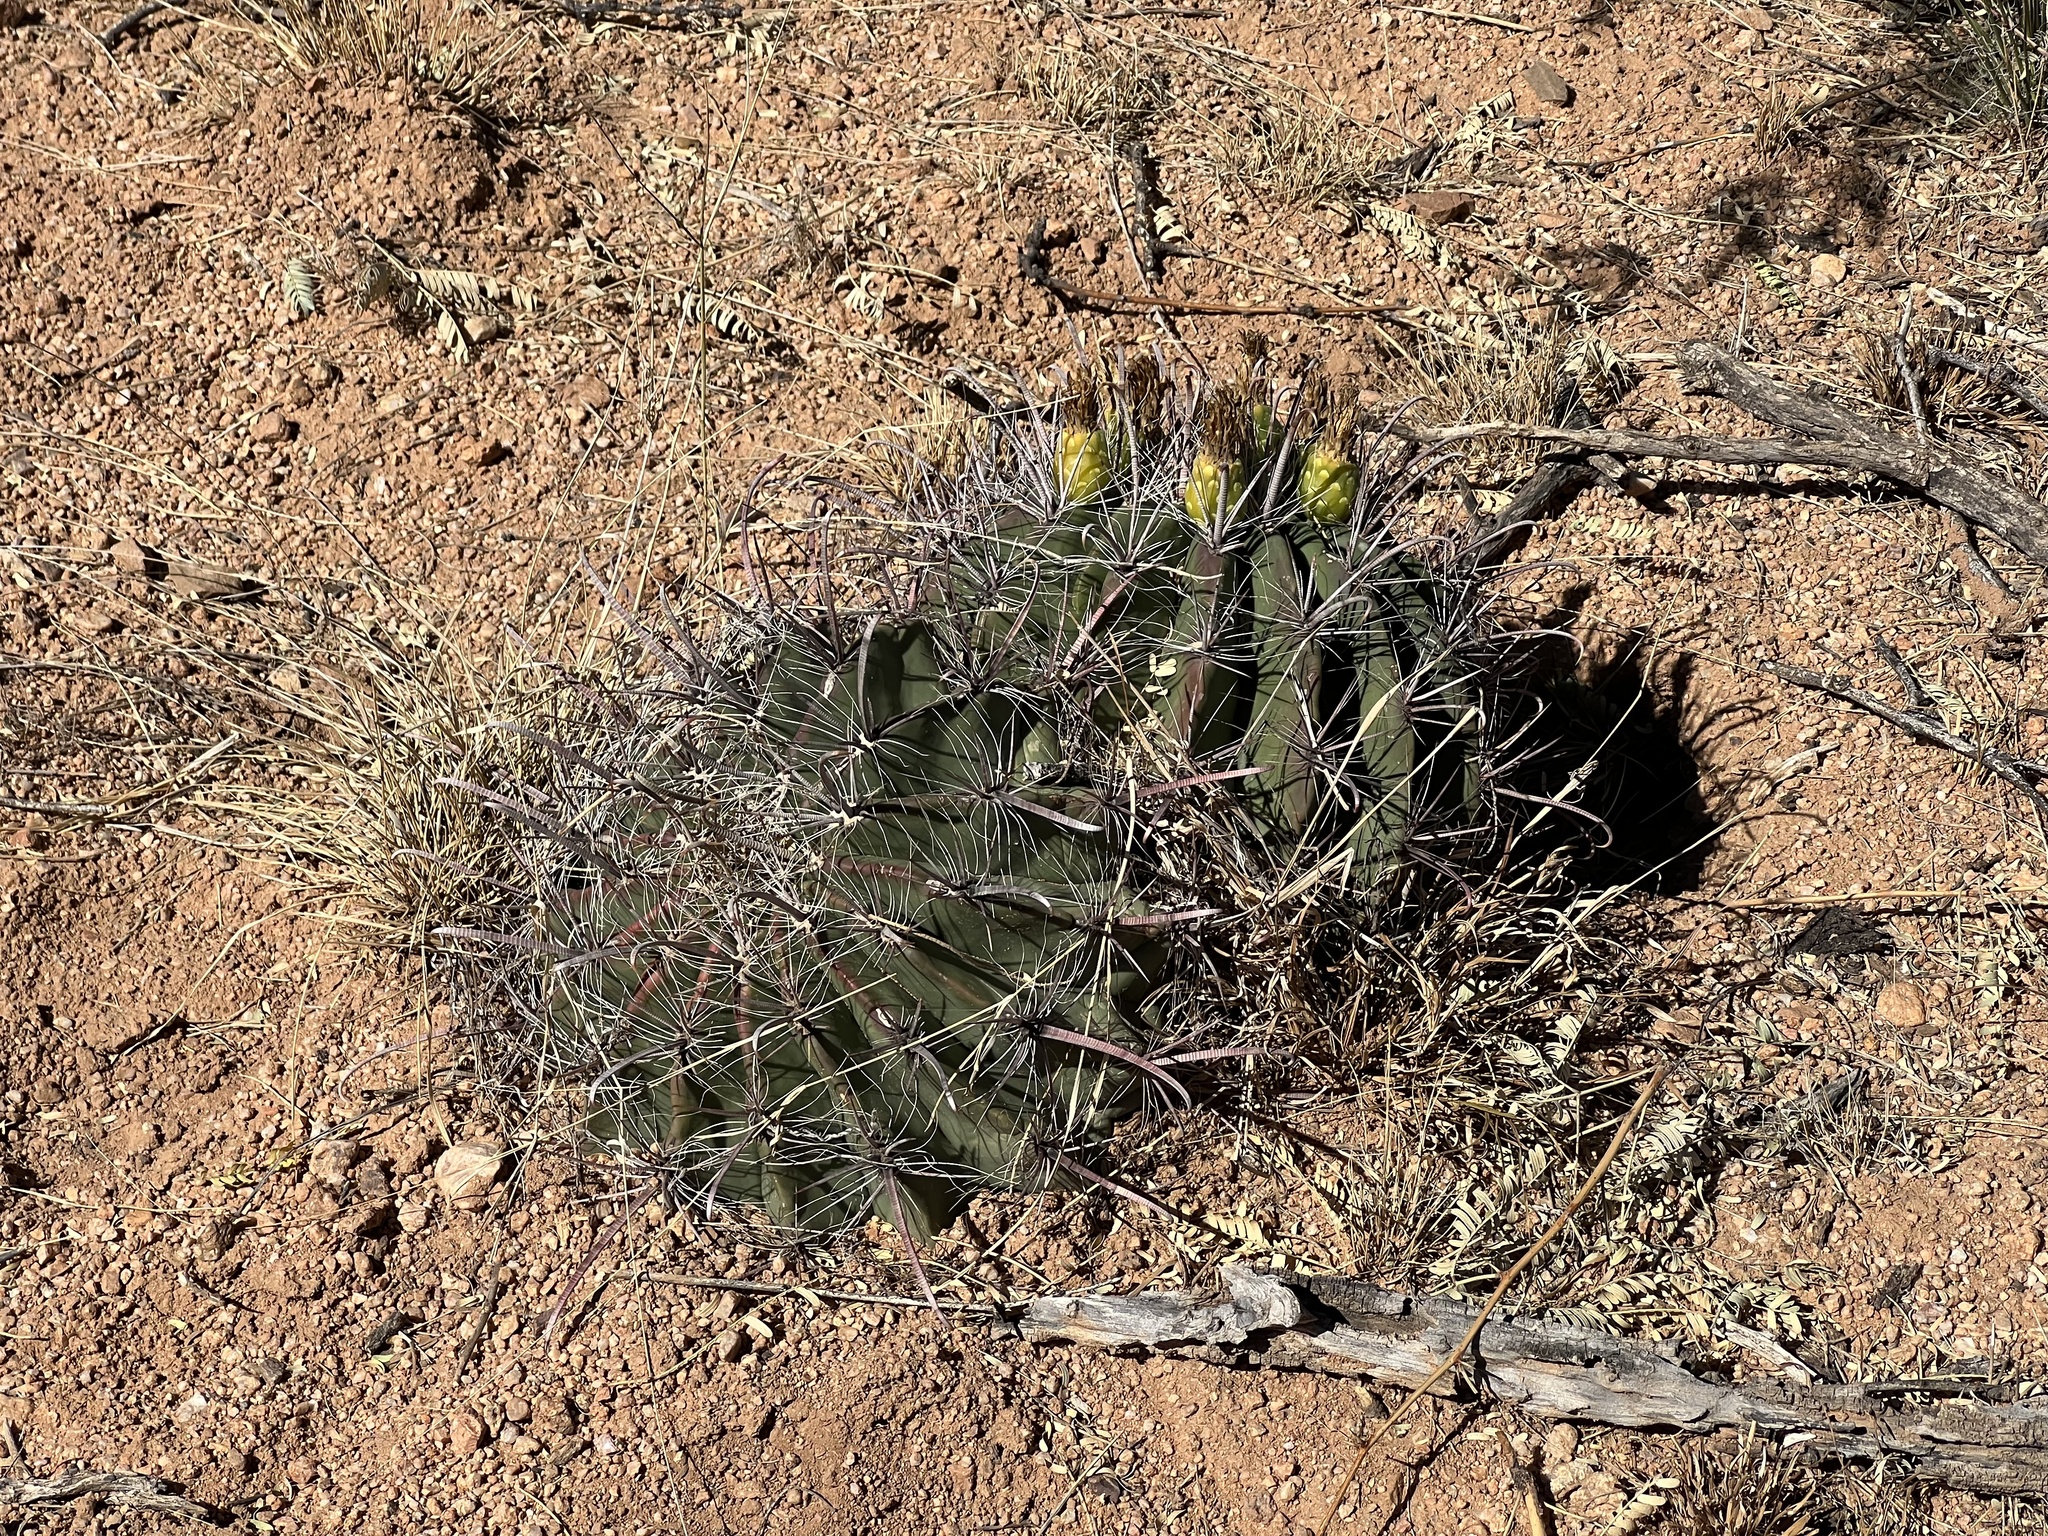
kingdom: Plantae
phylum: Tracheophyta
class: Magnoliopsida
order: Caryophyllales
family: Cactaceae
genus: Ferocactus
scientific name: Ferocactus wislizeni
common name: Candy barrel cactus
